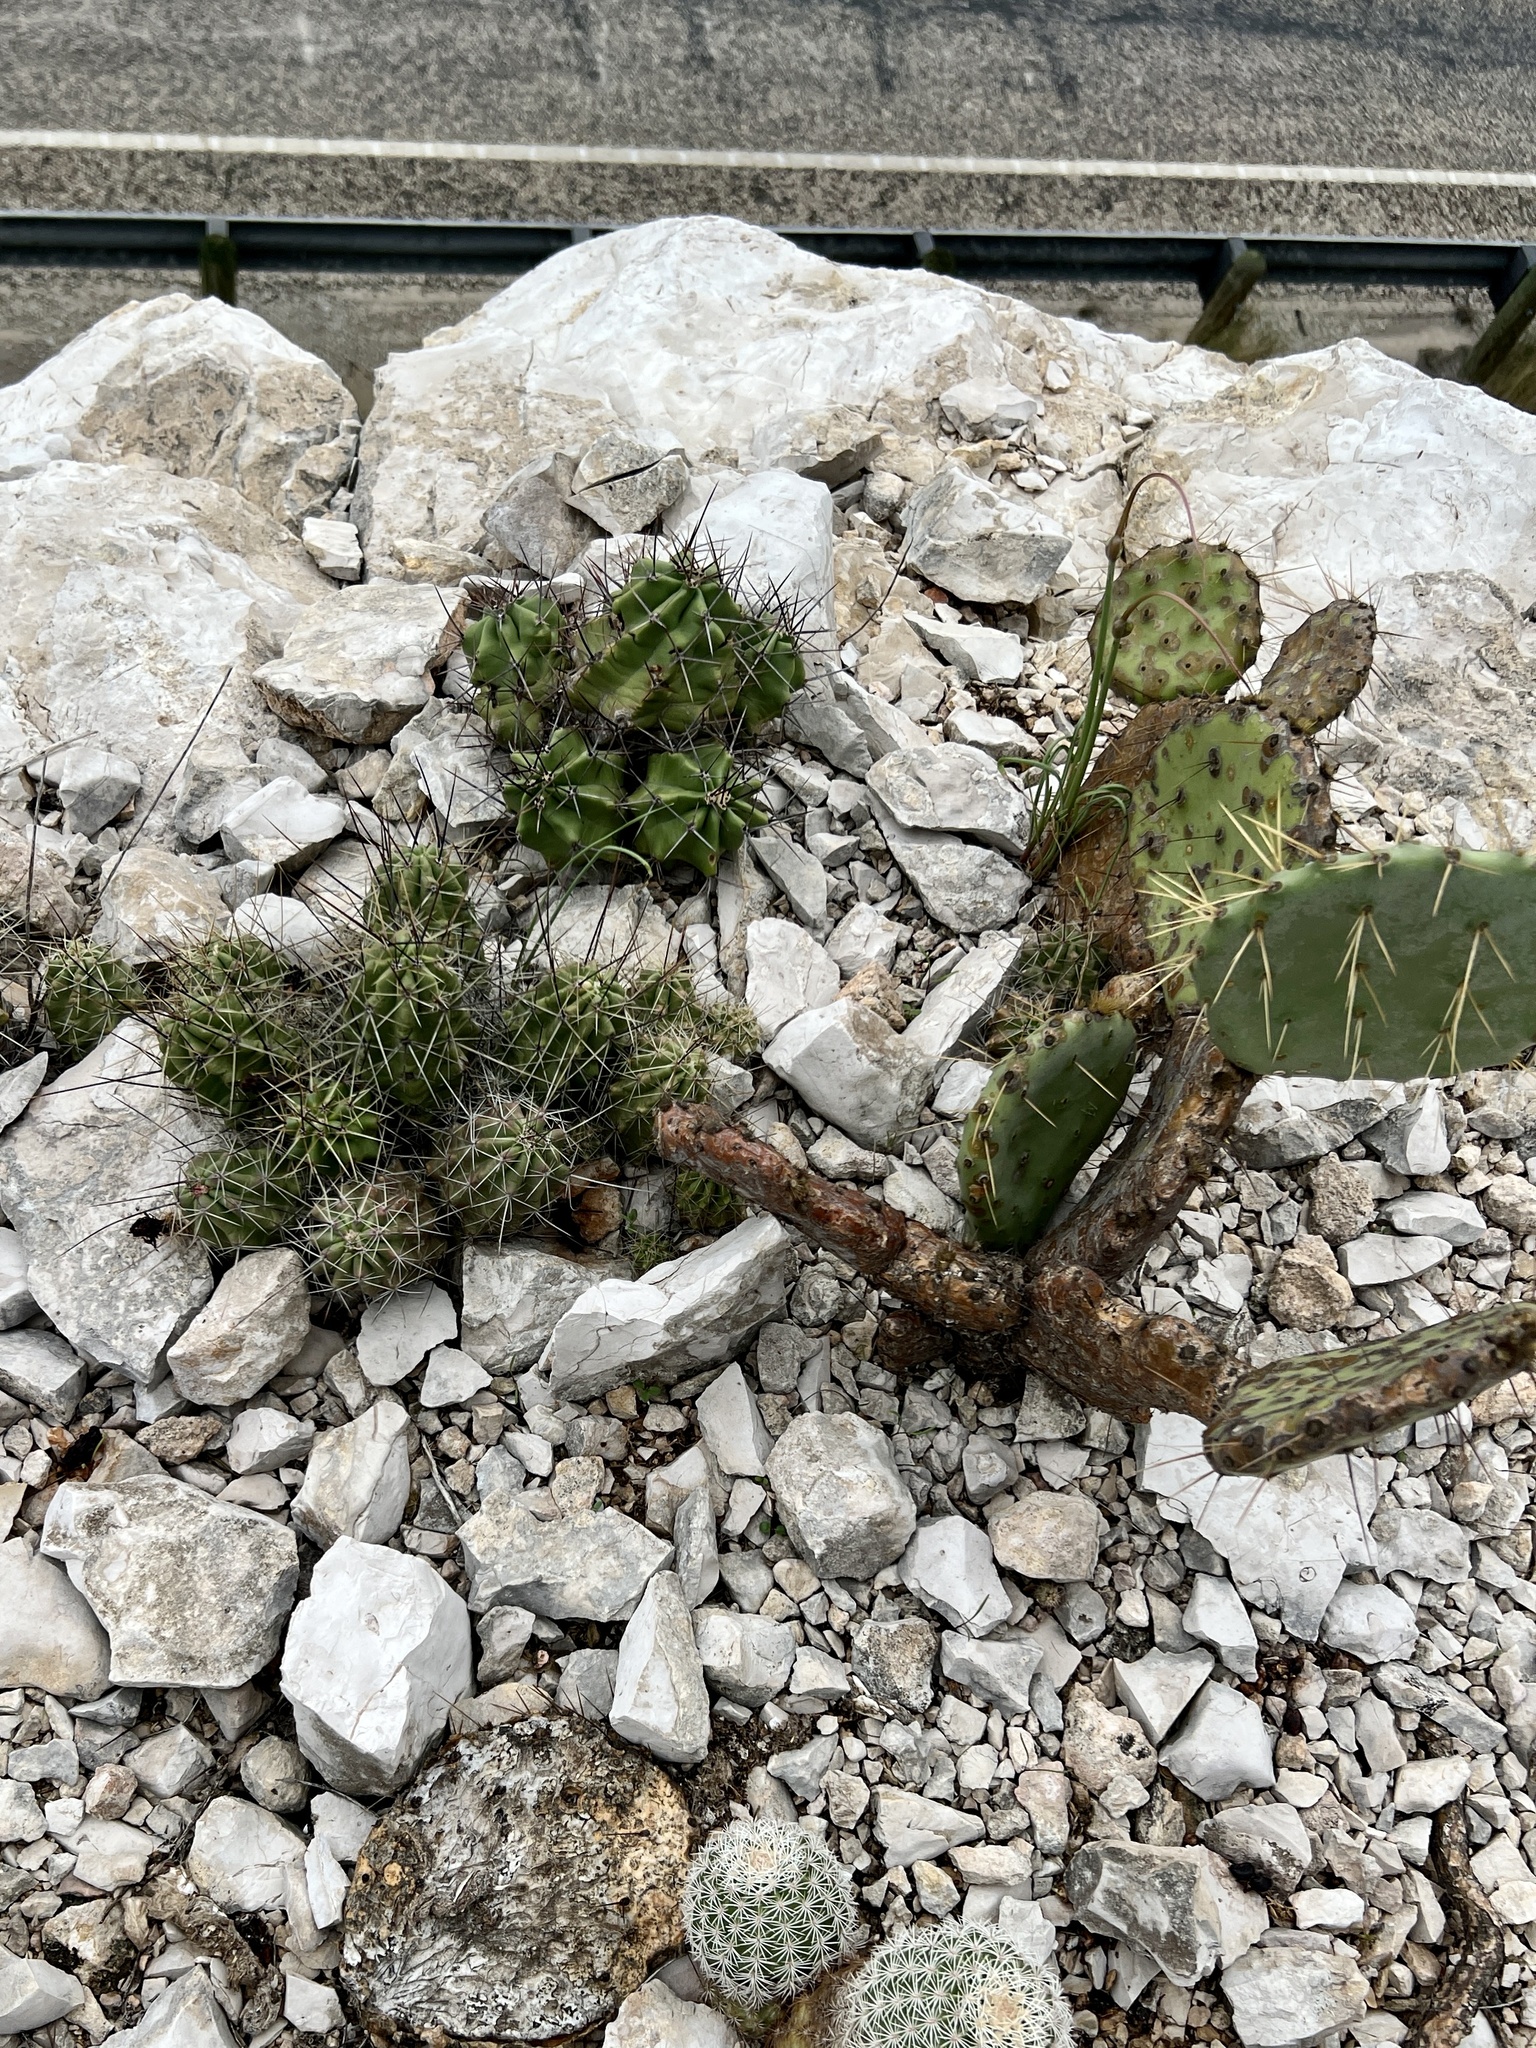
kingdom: Plantae
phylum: Tracheophyta
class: Magnoliopsida
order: Caryophyllales
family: Cactaceae
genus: Echinocereus
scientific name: Echinocereus enneacanthus
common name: Pitaya
